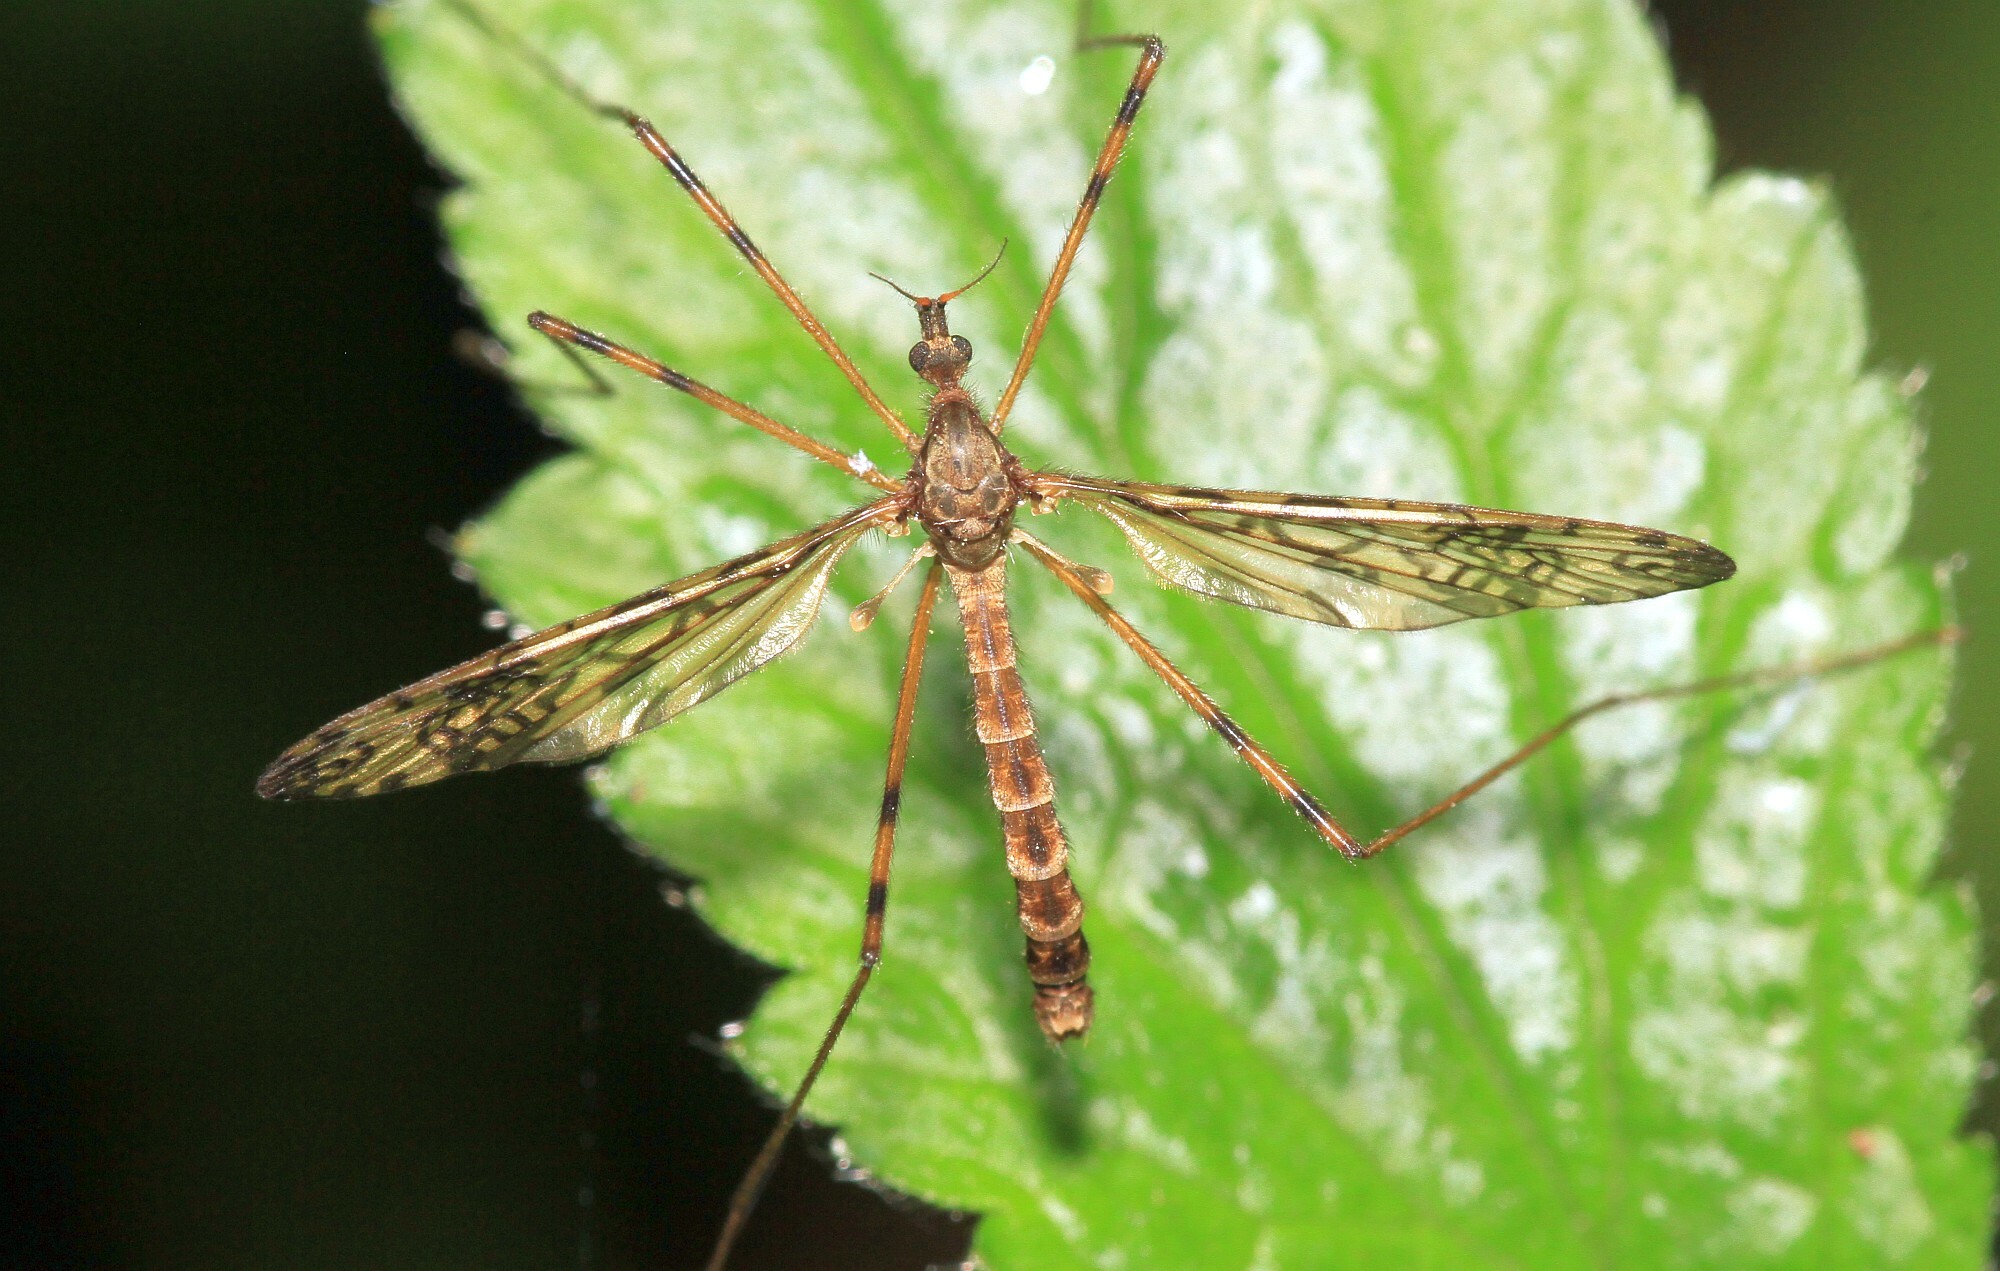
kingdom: Animalia
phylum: Arthropoda
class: Insecta
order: Diptera
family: Limoniidae
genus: Epiphragma
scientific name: Epiphragma ocellare
